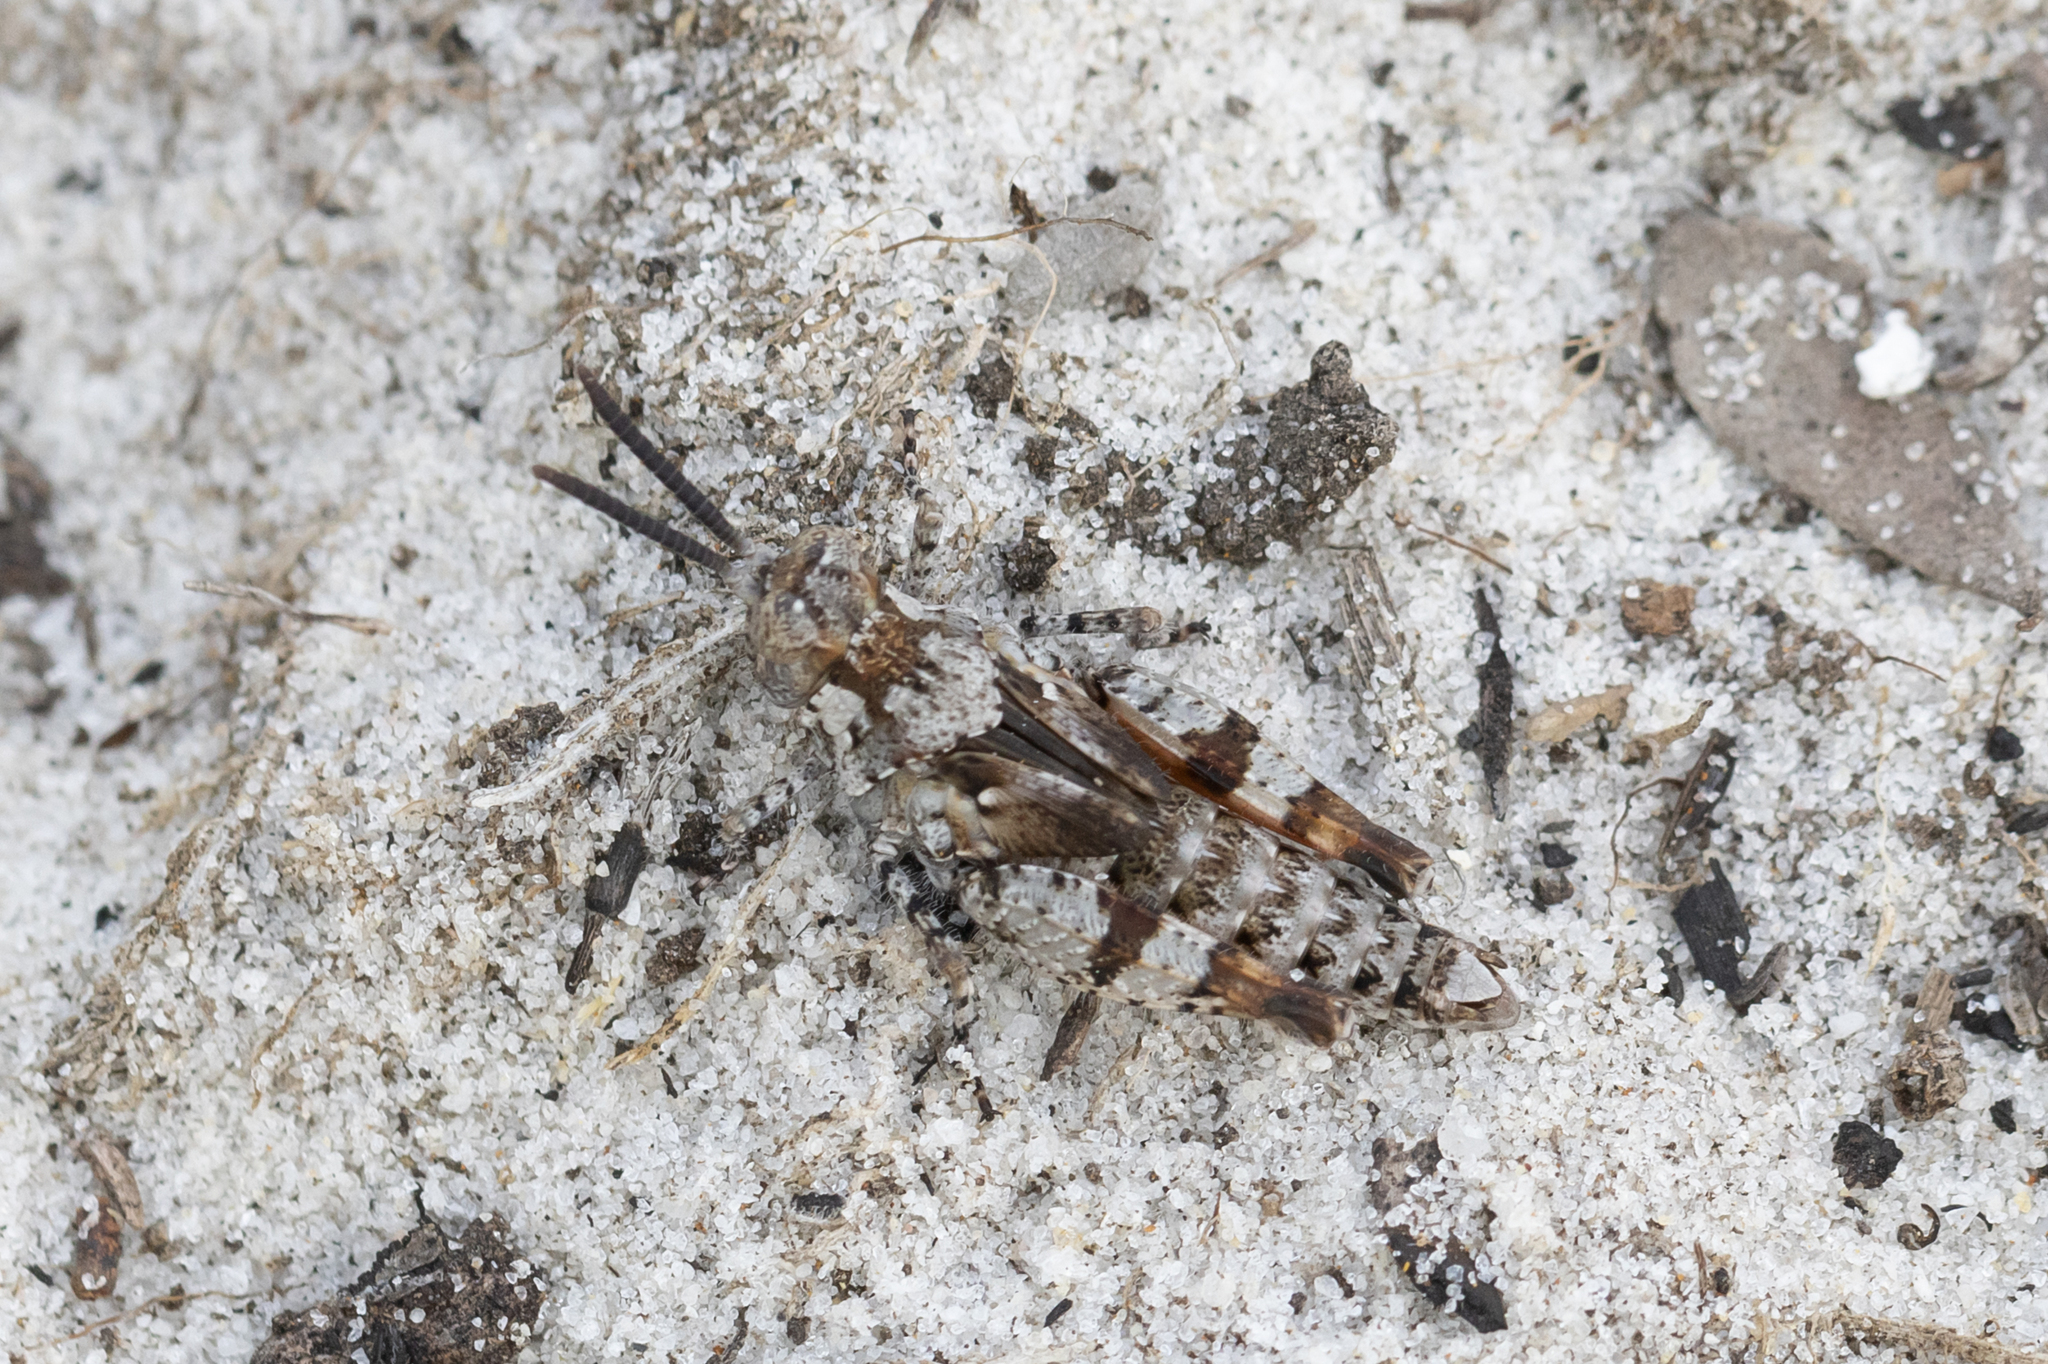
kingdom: Animalia
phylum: Arthropoda
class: Insecta
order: Orthoptera
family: Acrididae
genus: Urnisa
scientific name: Urnisa rugosa
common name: Red-legged urnisa
